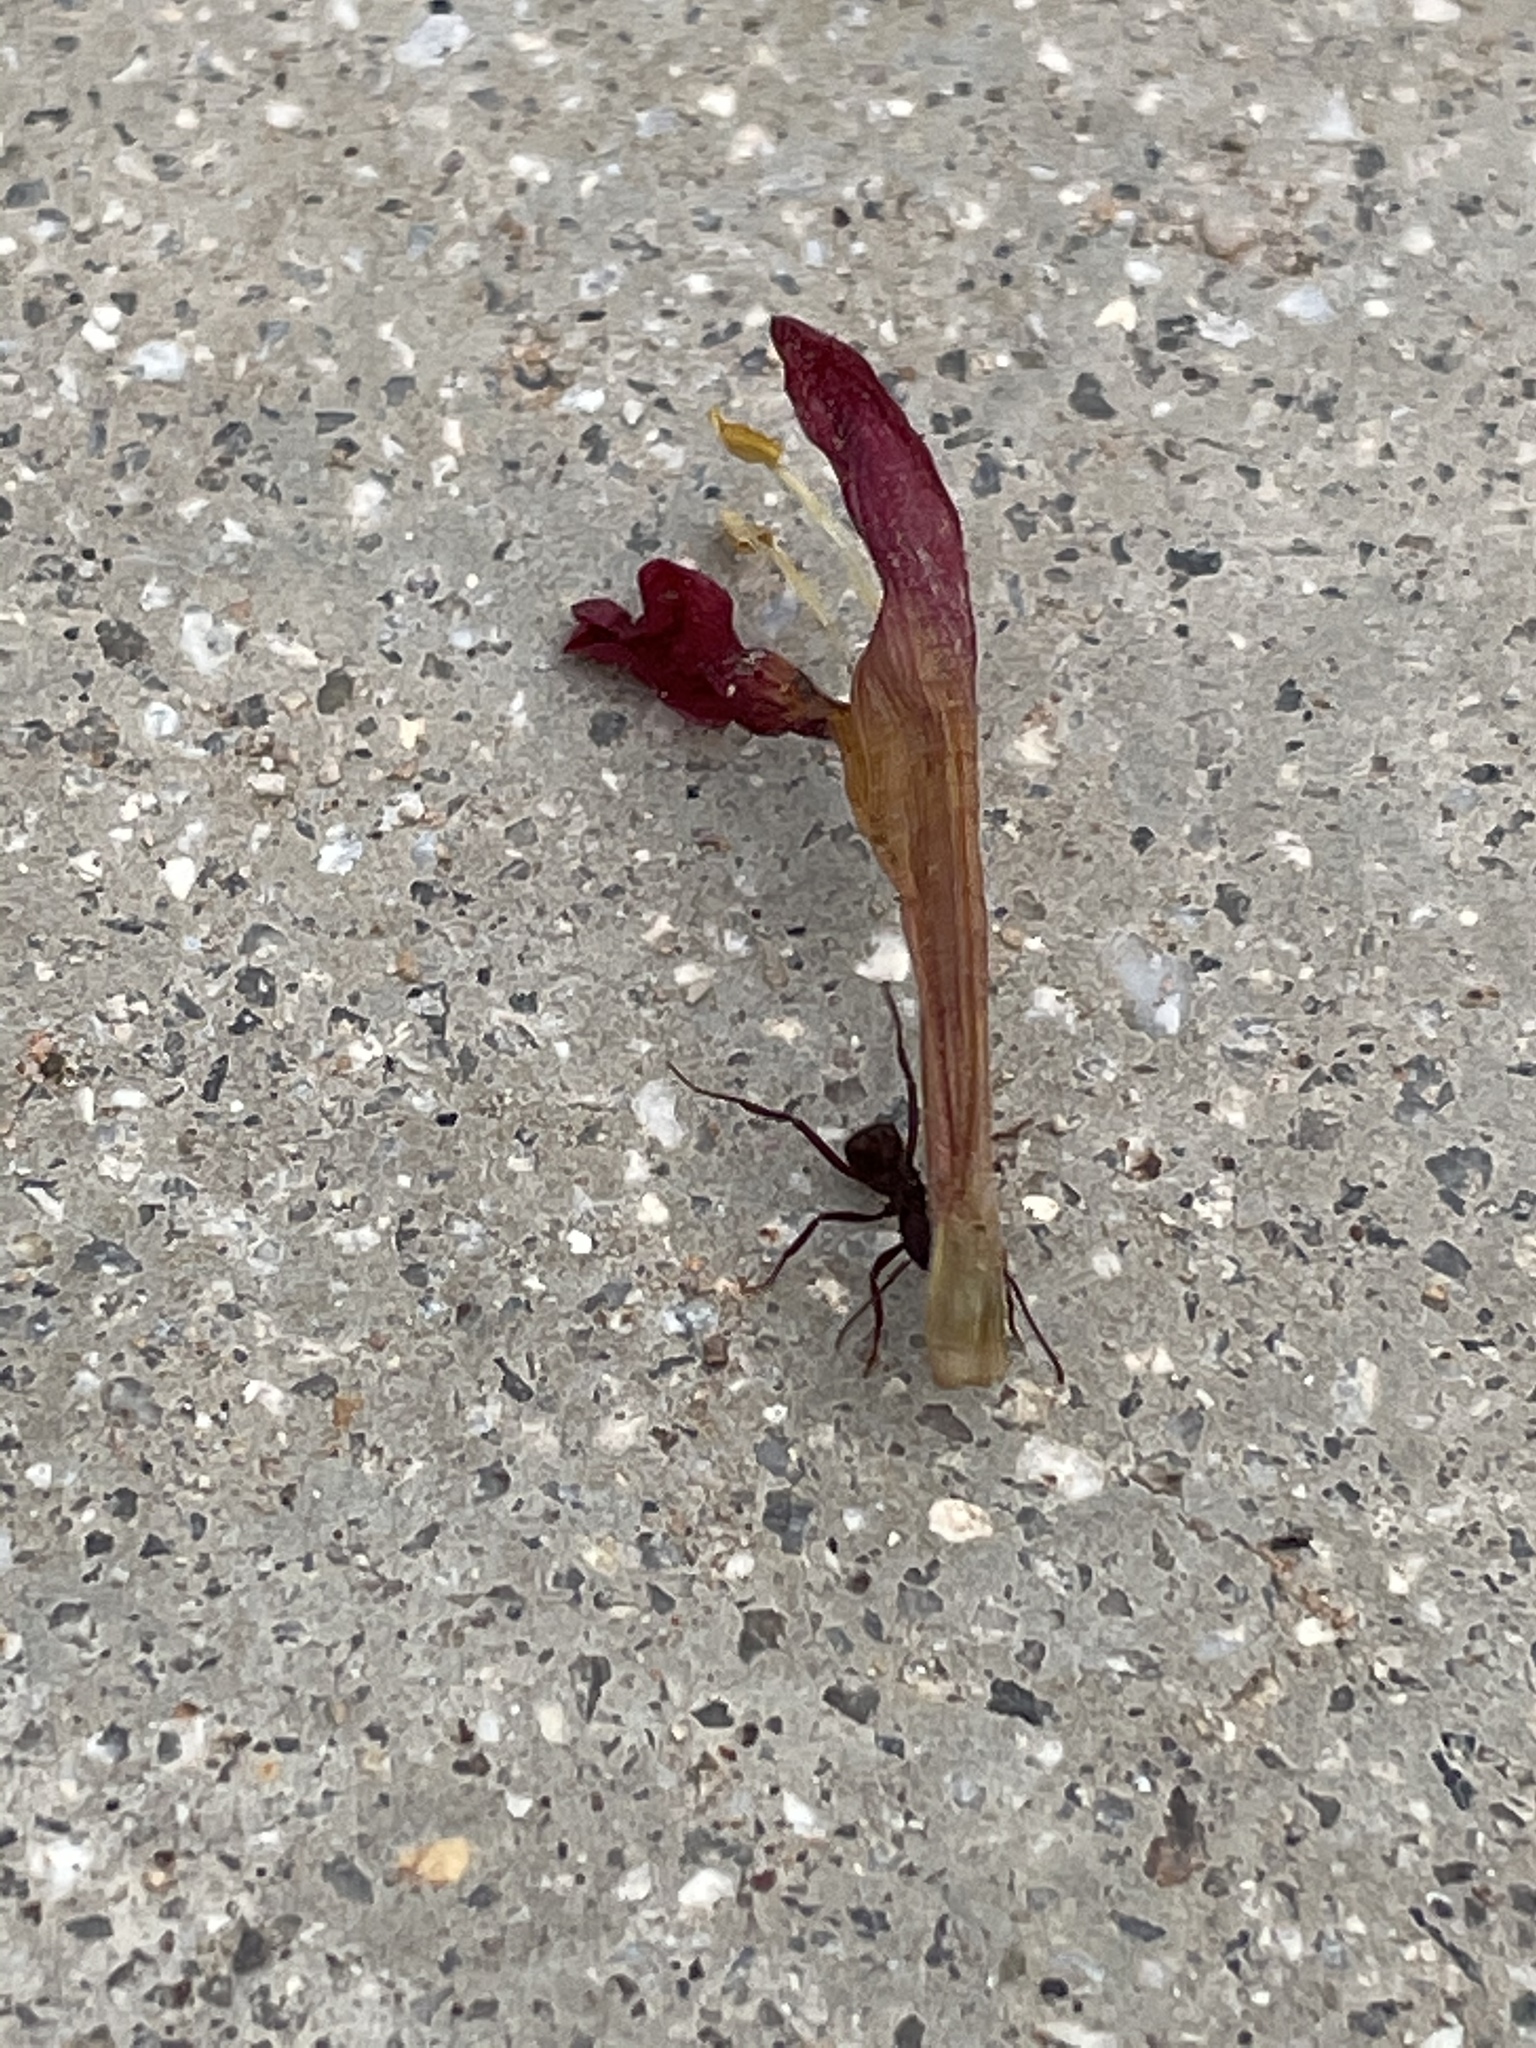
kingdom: Animalia
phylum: Arthropoda
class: Insecta
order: Hymenoptera
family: Formicidae
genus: Acromyrmex
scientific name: Acromyrmex versicolor
